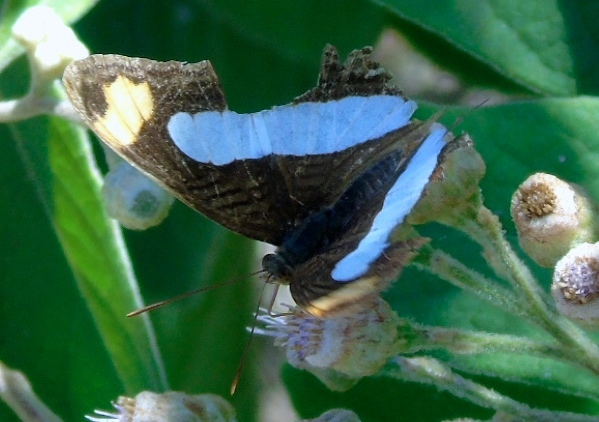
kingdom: Animalia
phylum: Arthropoda
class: Insecta
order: Lepidoptera
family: Nymphalidae
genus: Limenitis
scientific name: Limenitis iphiclus
